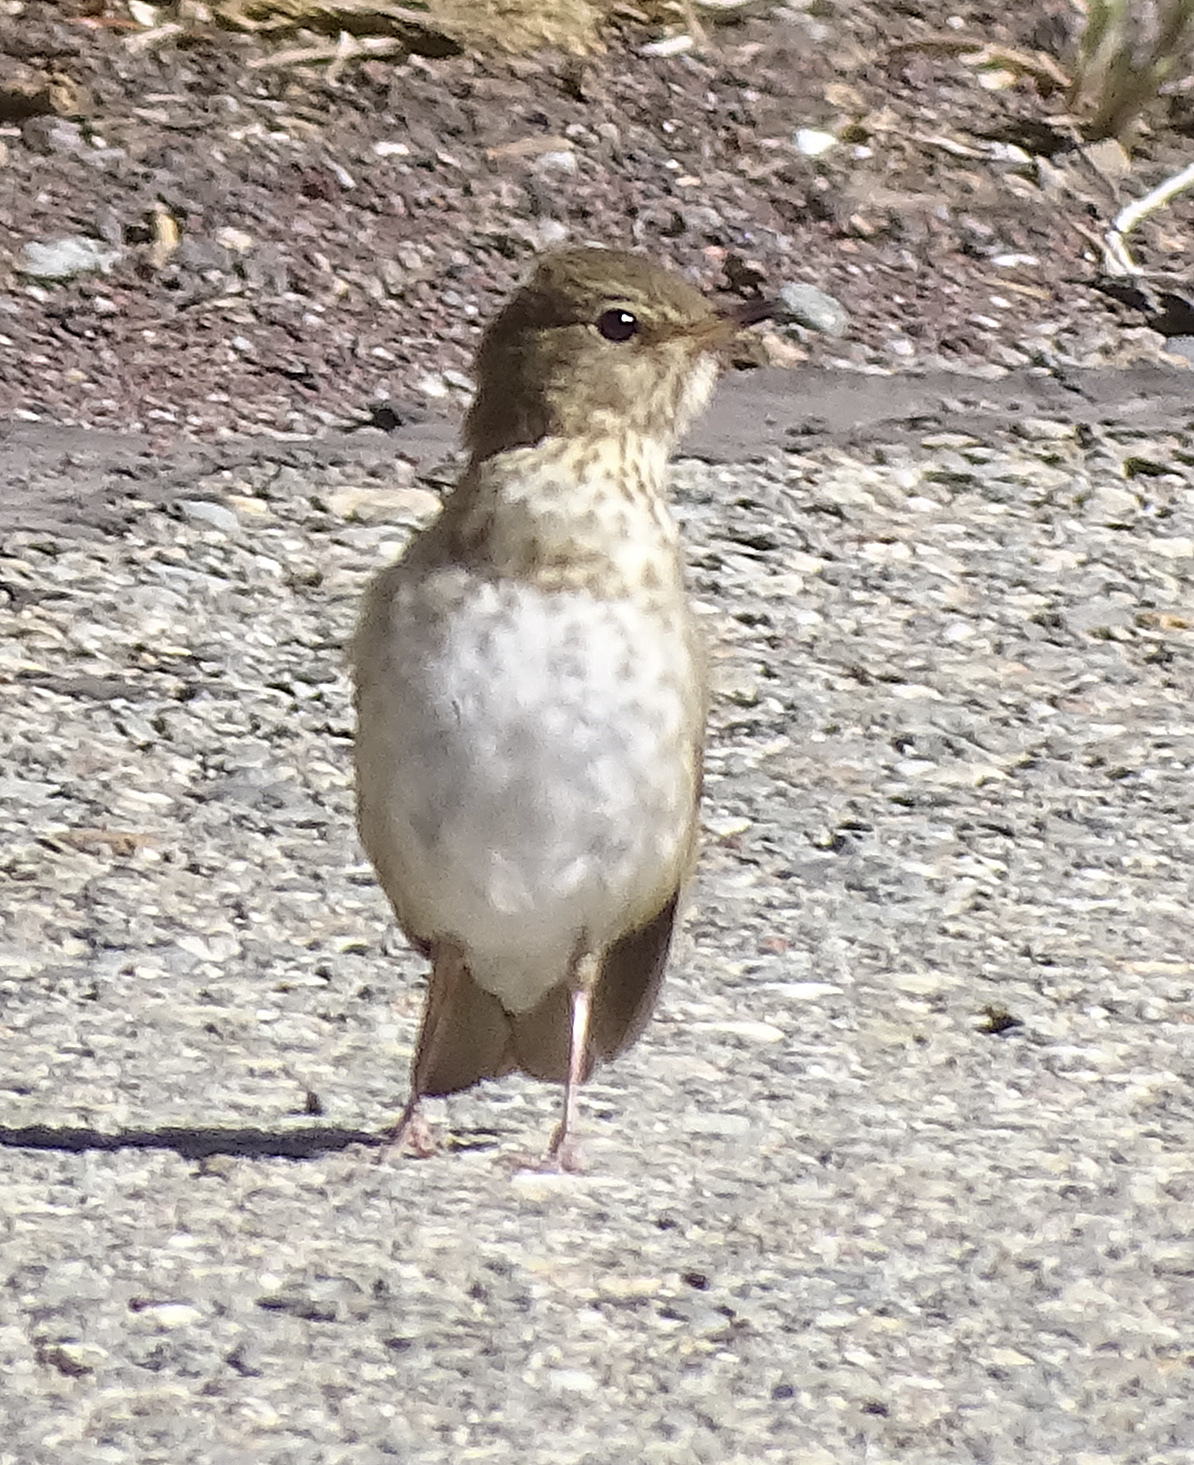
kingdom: Animalia
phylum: Chordata
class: Aves
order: Passeriformes
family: Turdidae
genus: Catharus
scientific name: Catharus ustulatus
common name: Swainson's thrush
